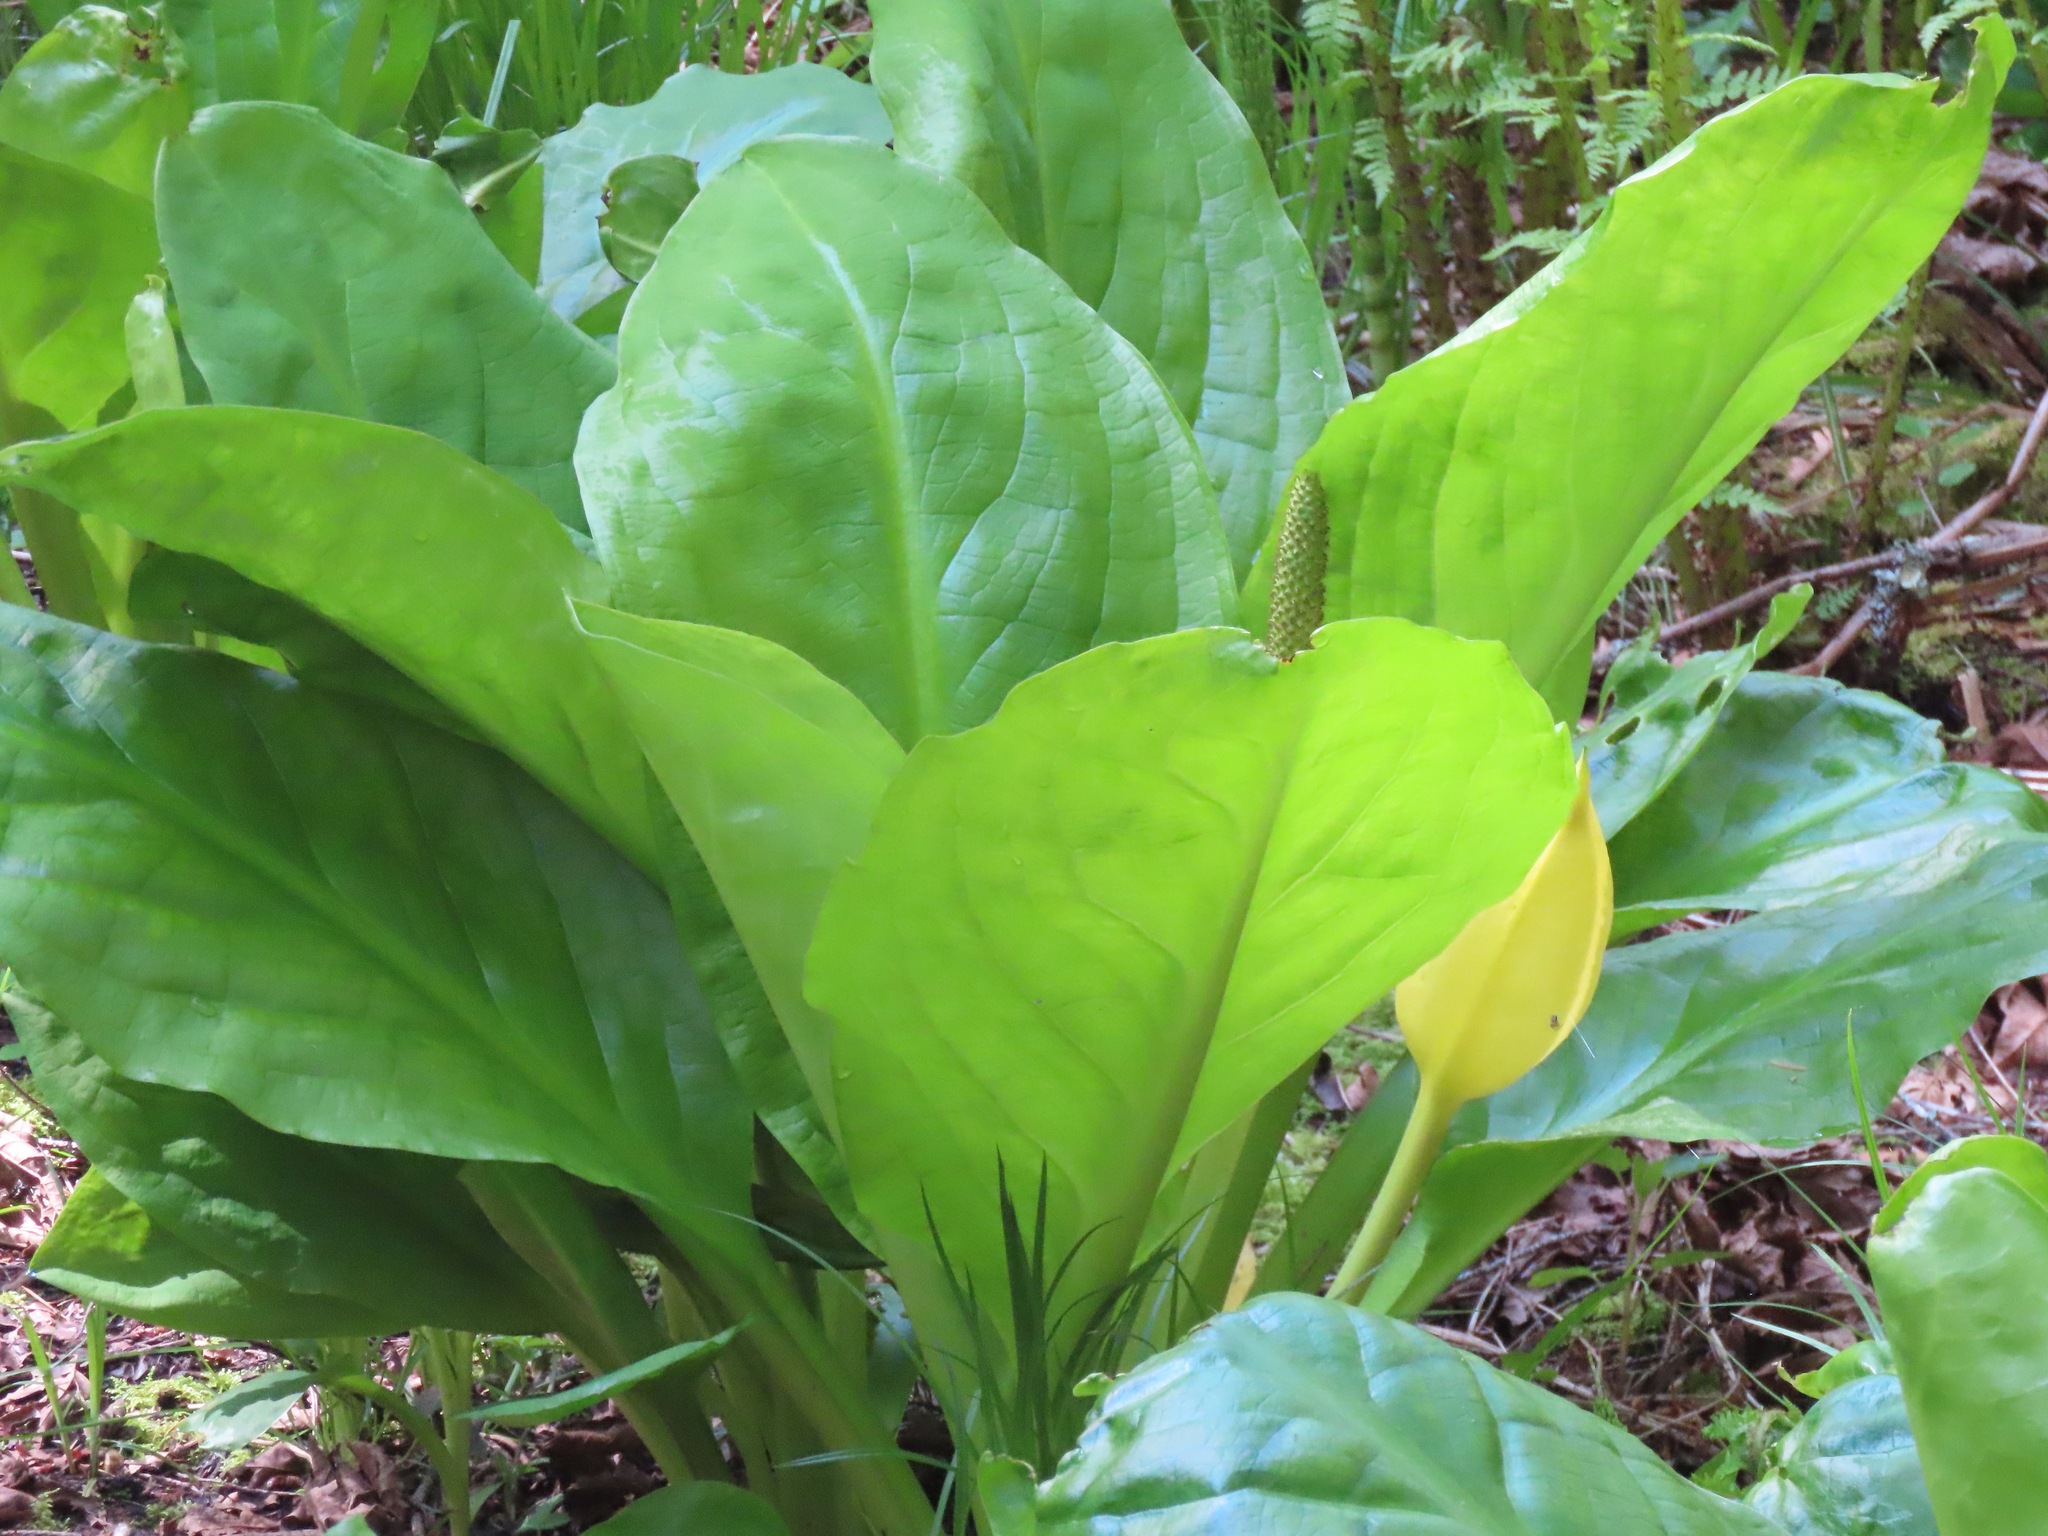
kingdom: Plantae
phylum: Tracheophyta
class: Liliopsida
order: Alismatales
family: Araceae
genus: Lysichiton
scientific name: Lysichiton americanus
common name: American skunk cabbage
